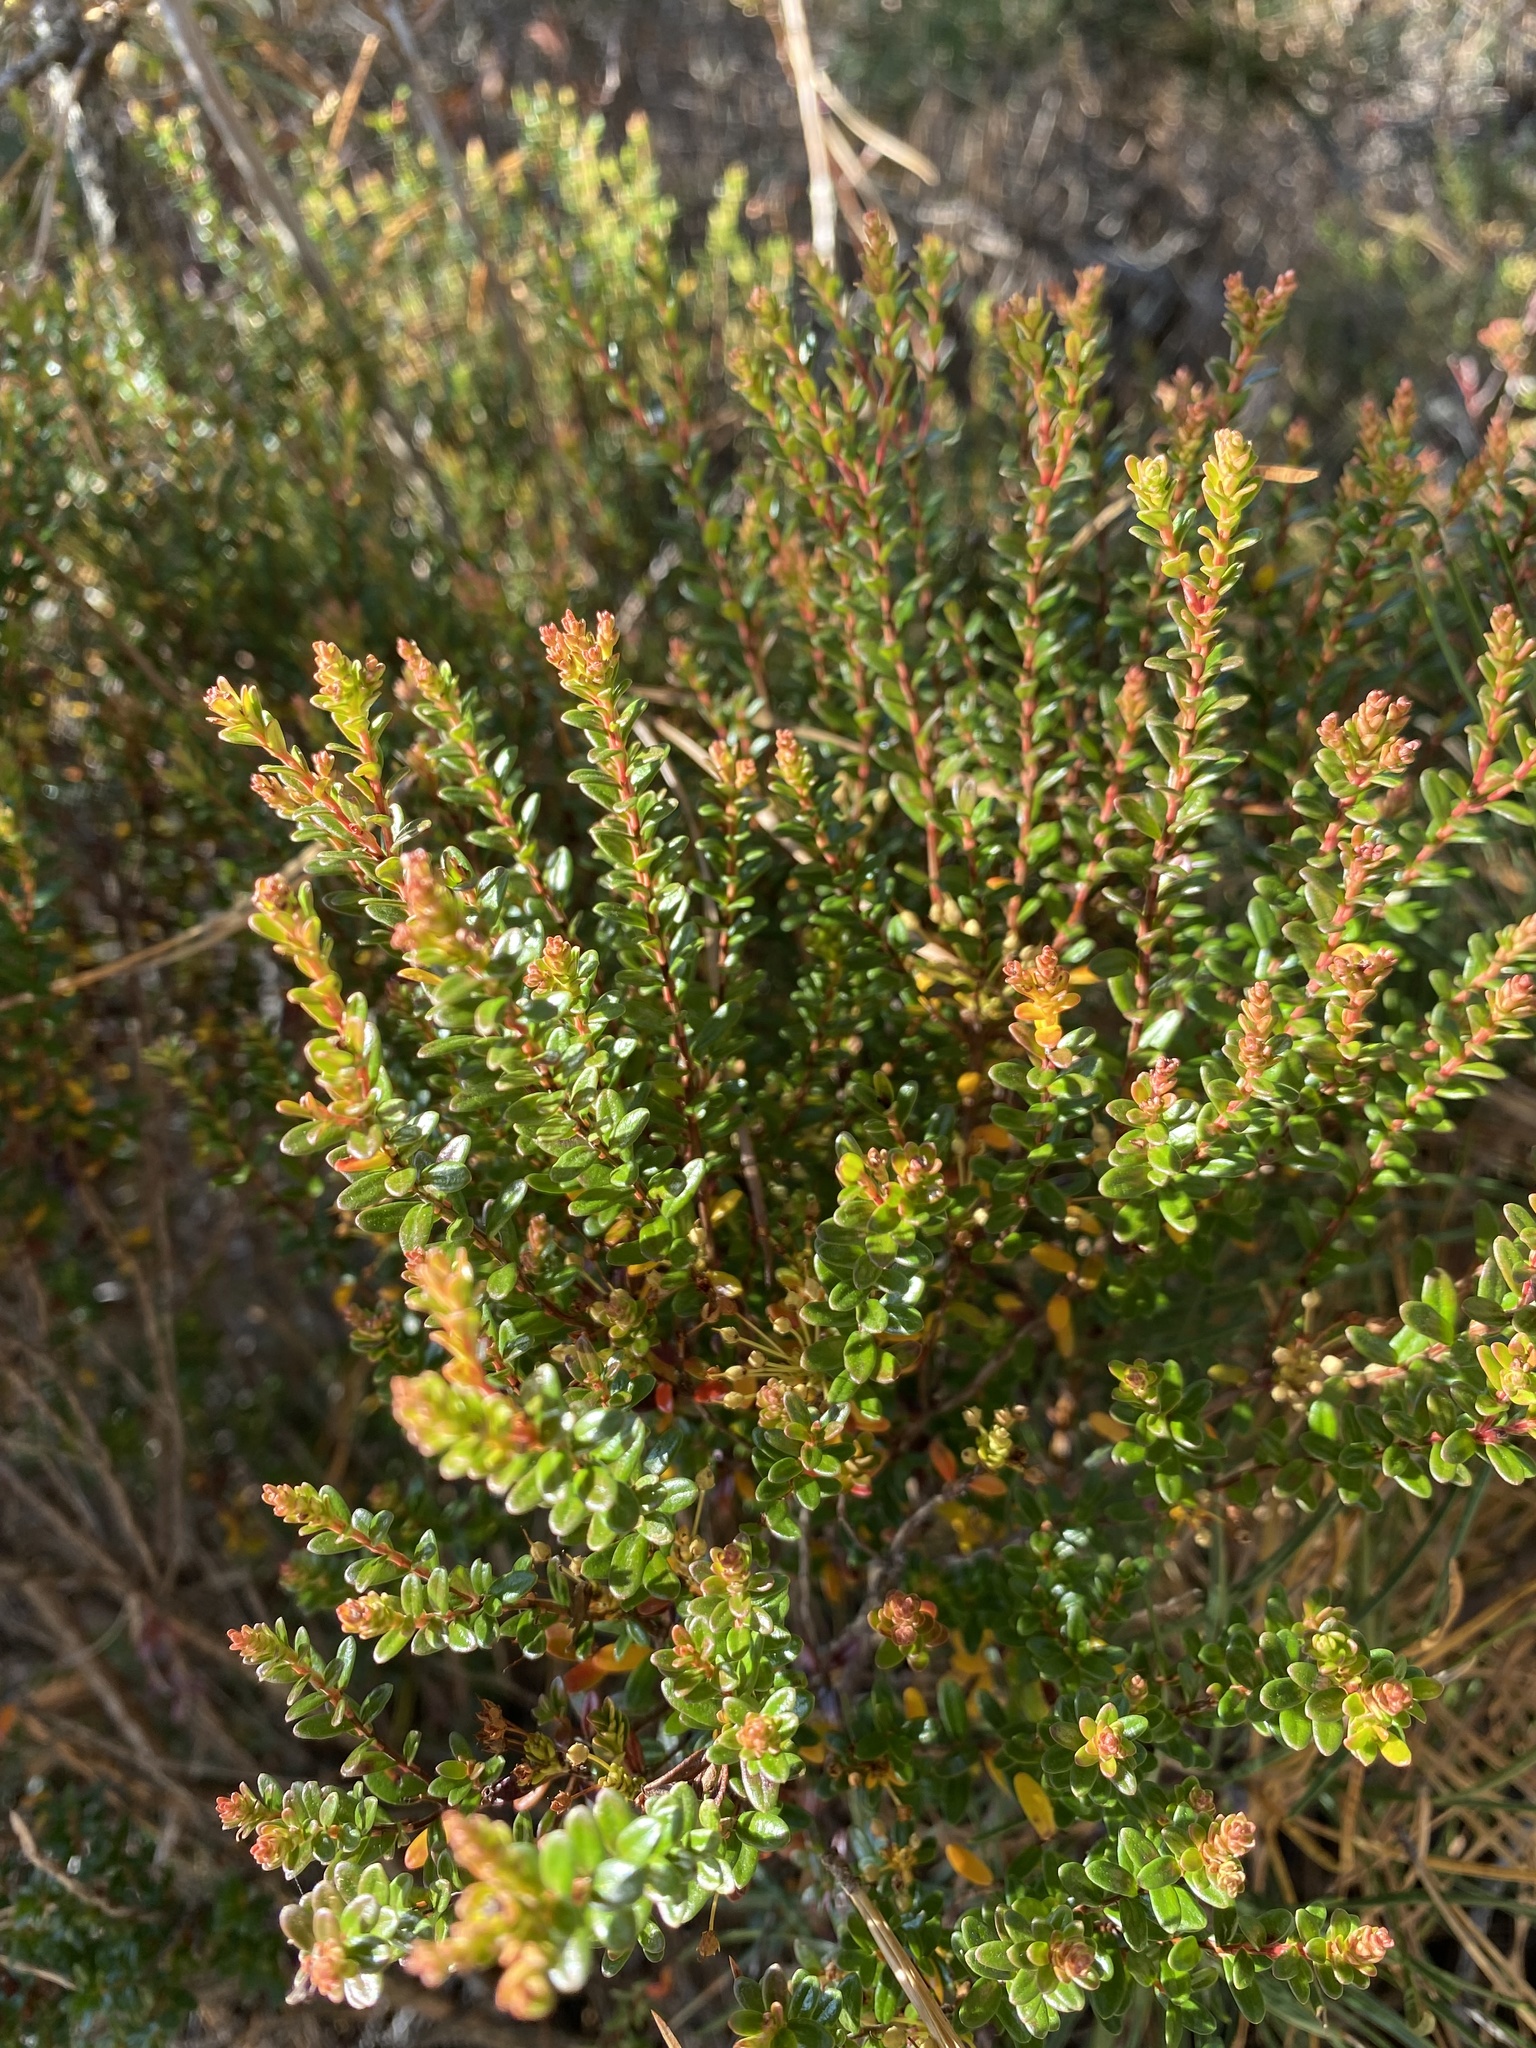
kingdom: Plantae
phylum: Tracheophyta
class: Magnoliopsida
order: Ericales
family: Ericaceae
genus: Kalmia
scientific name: Kalmia buxifolia
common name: Sandmyrtle
